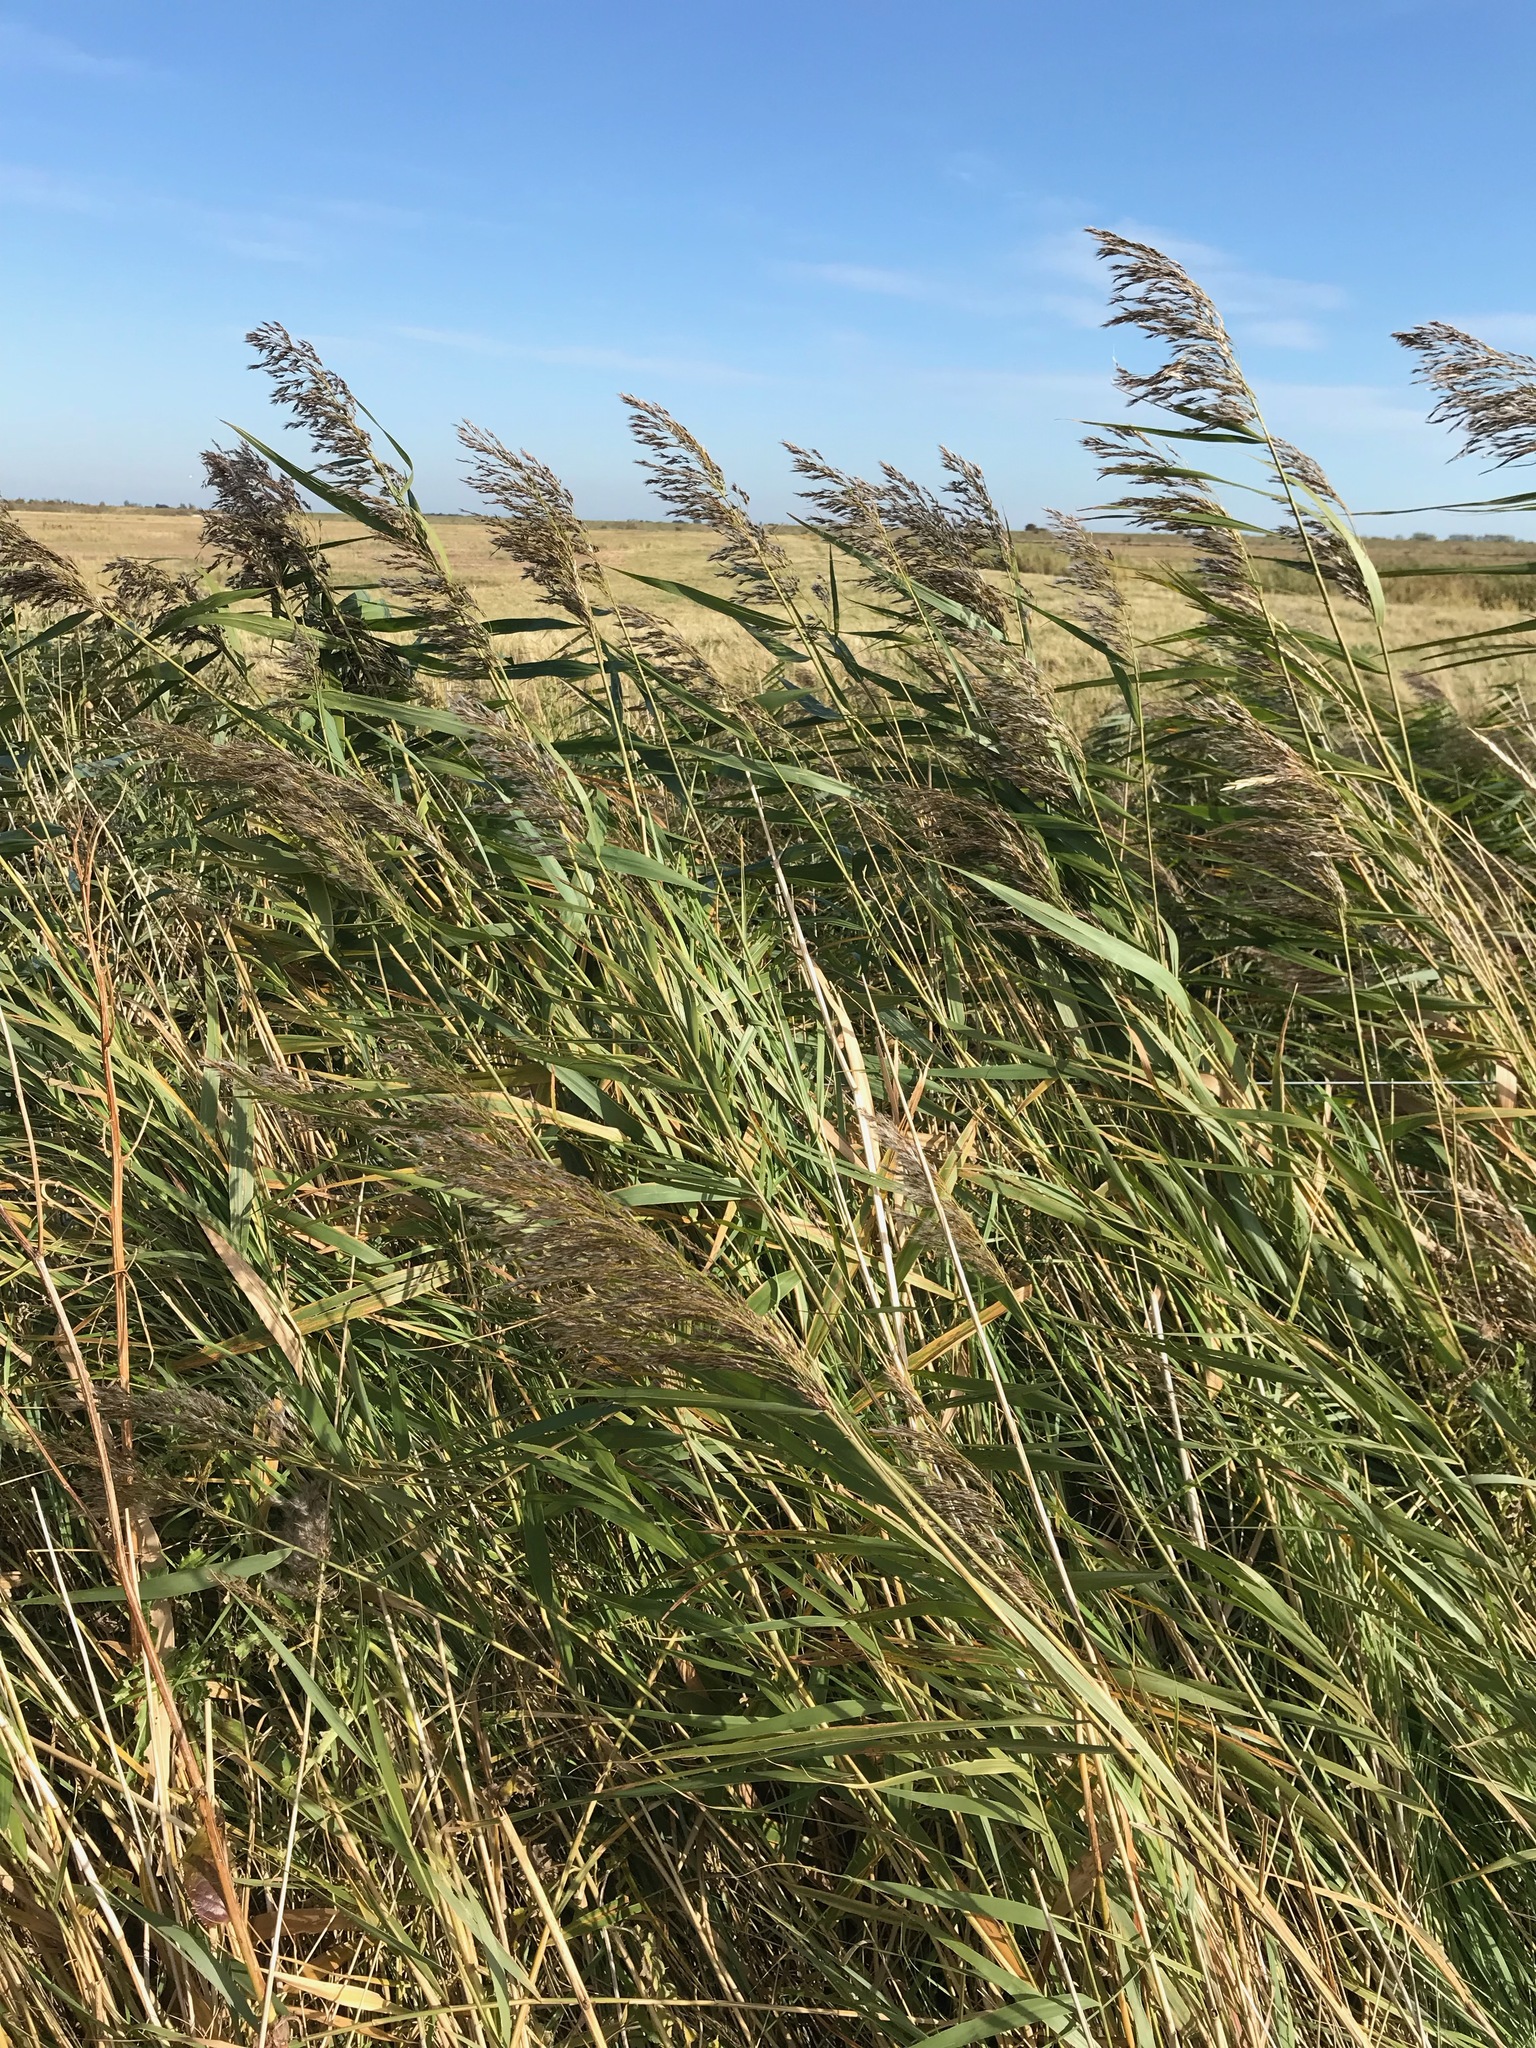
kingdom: Plantae
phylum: Tracheophyta
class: Liliopsida
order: Poales
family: Poaceae
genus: Phragmites
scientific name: Phragmites australis
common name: Common reed
